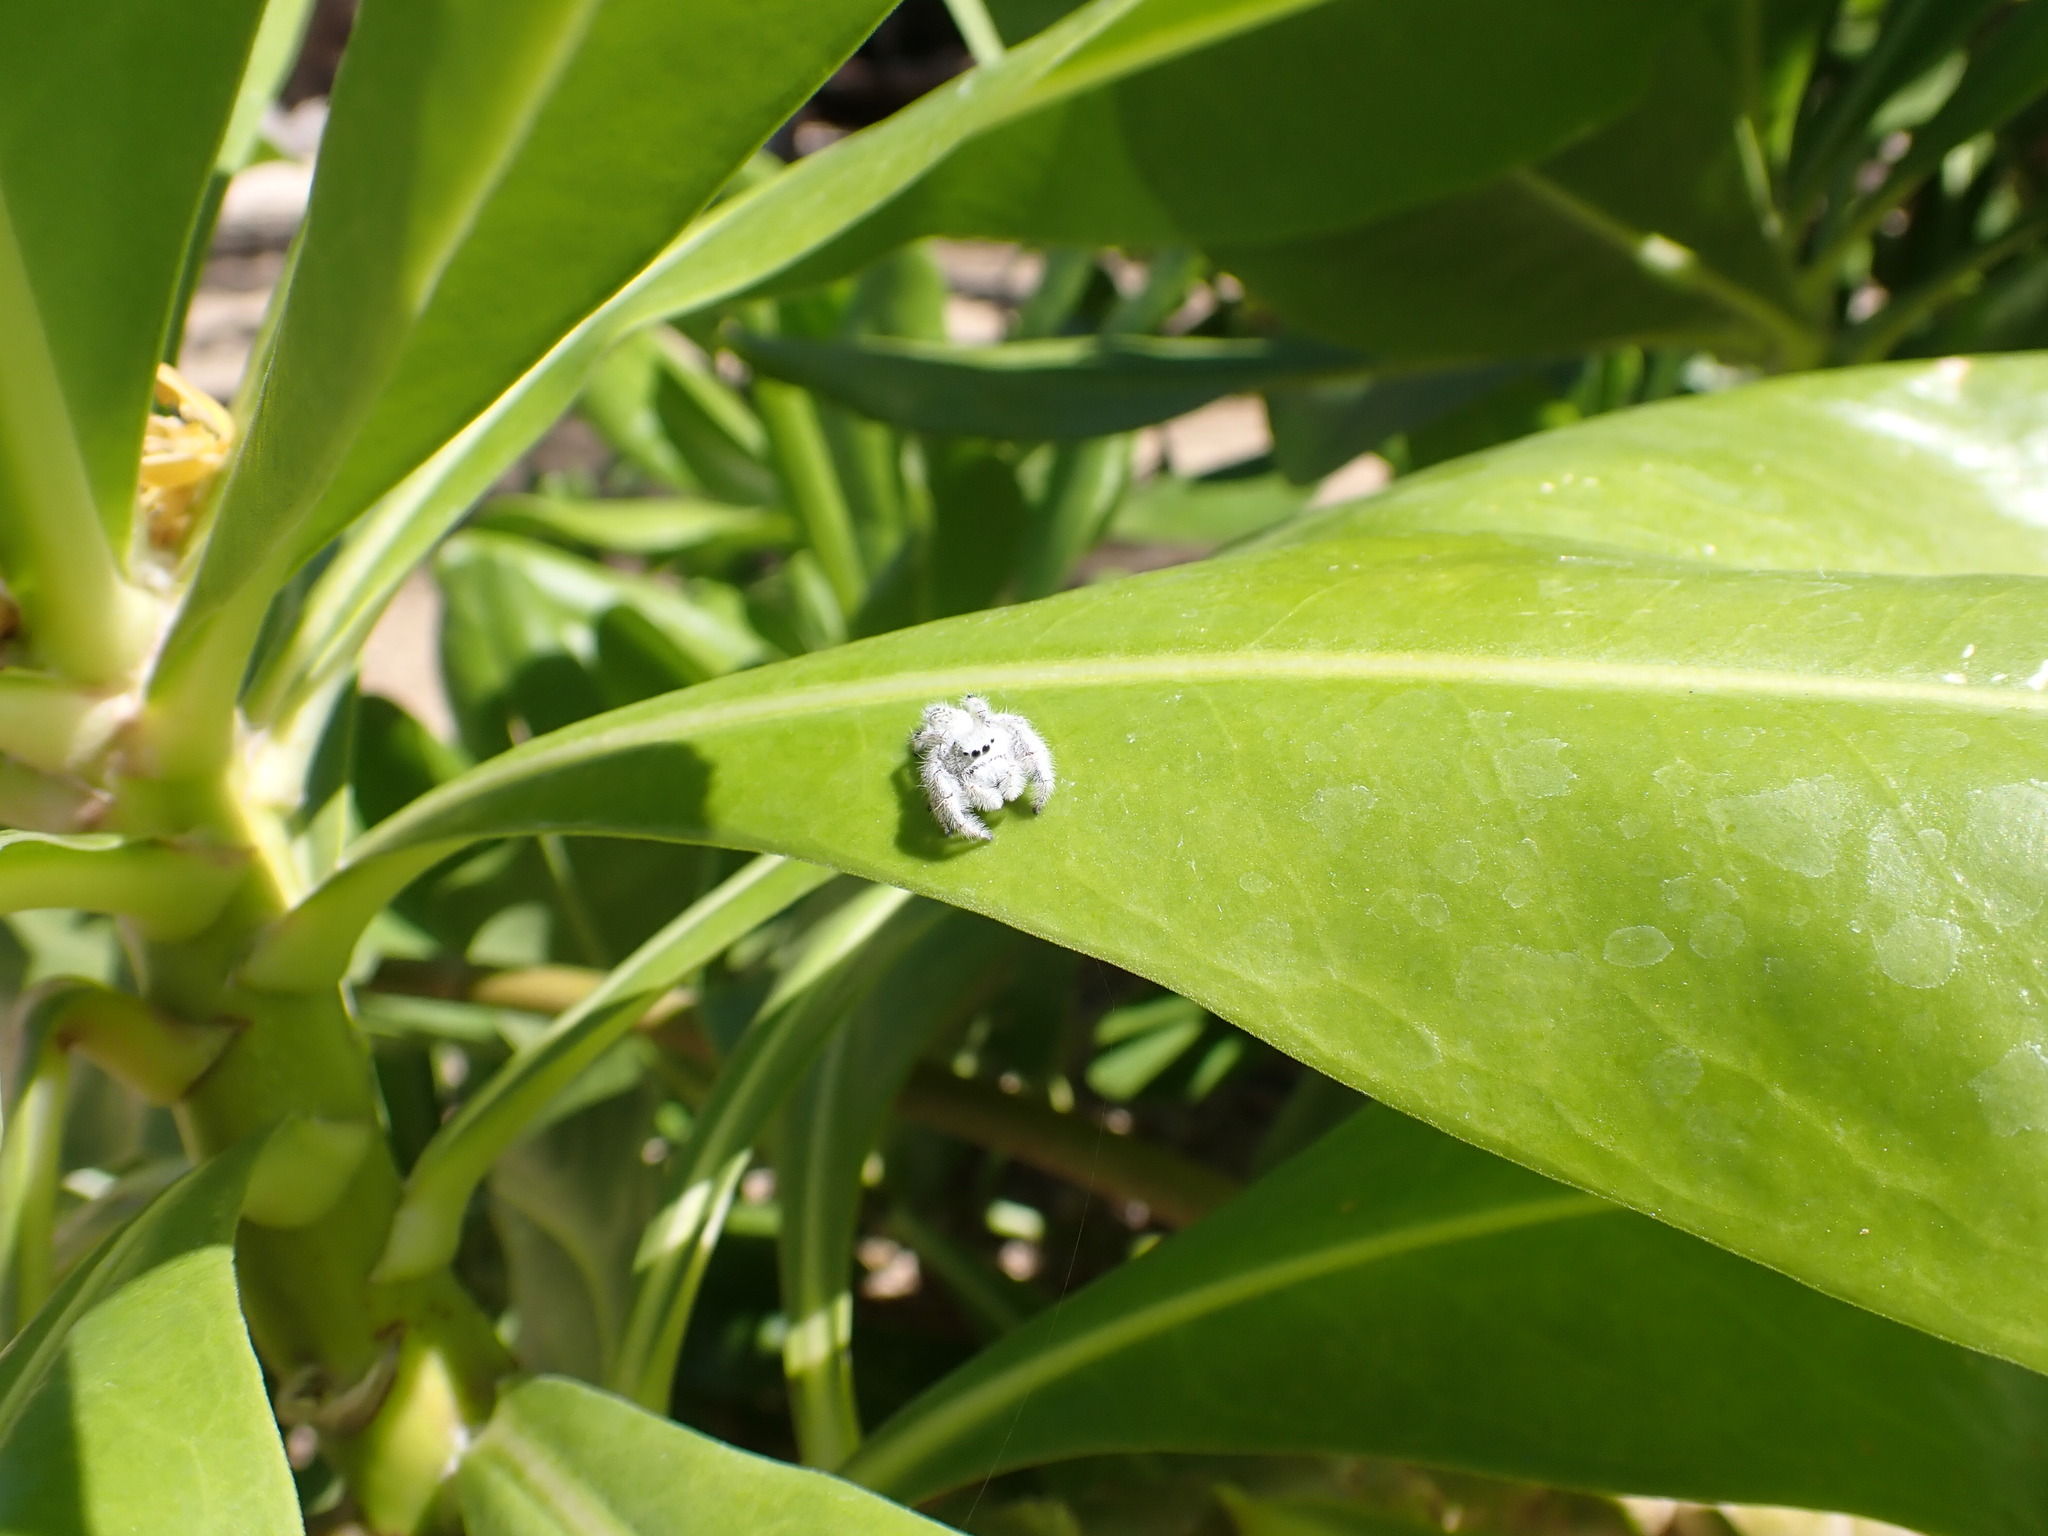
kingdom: Animalia
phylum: Arthropoda
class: Arachnida
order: Araneae
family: Salticidae
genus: Paraphidippus
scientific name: Paraphidippus fartilis
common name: Jumping spiders
